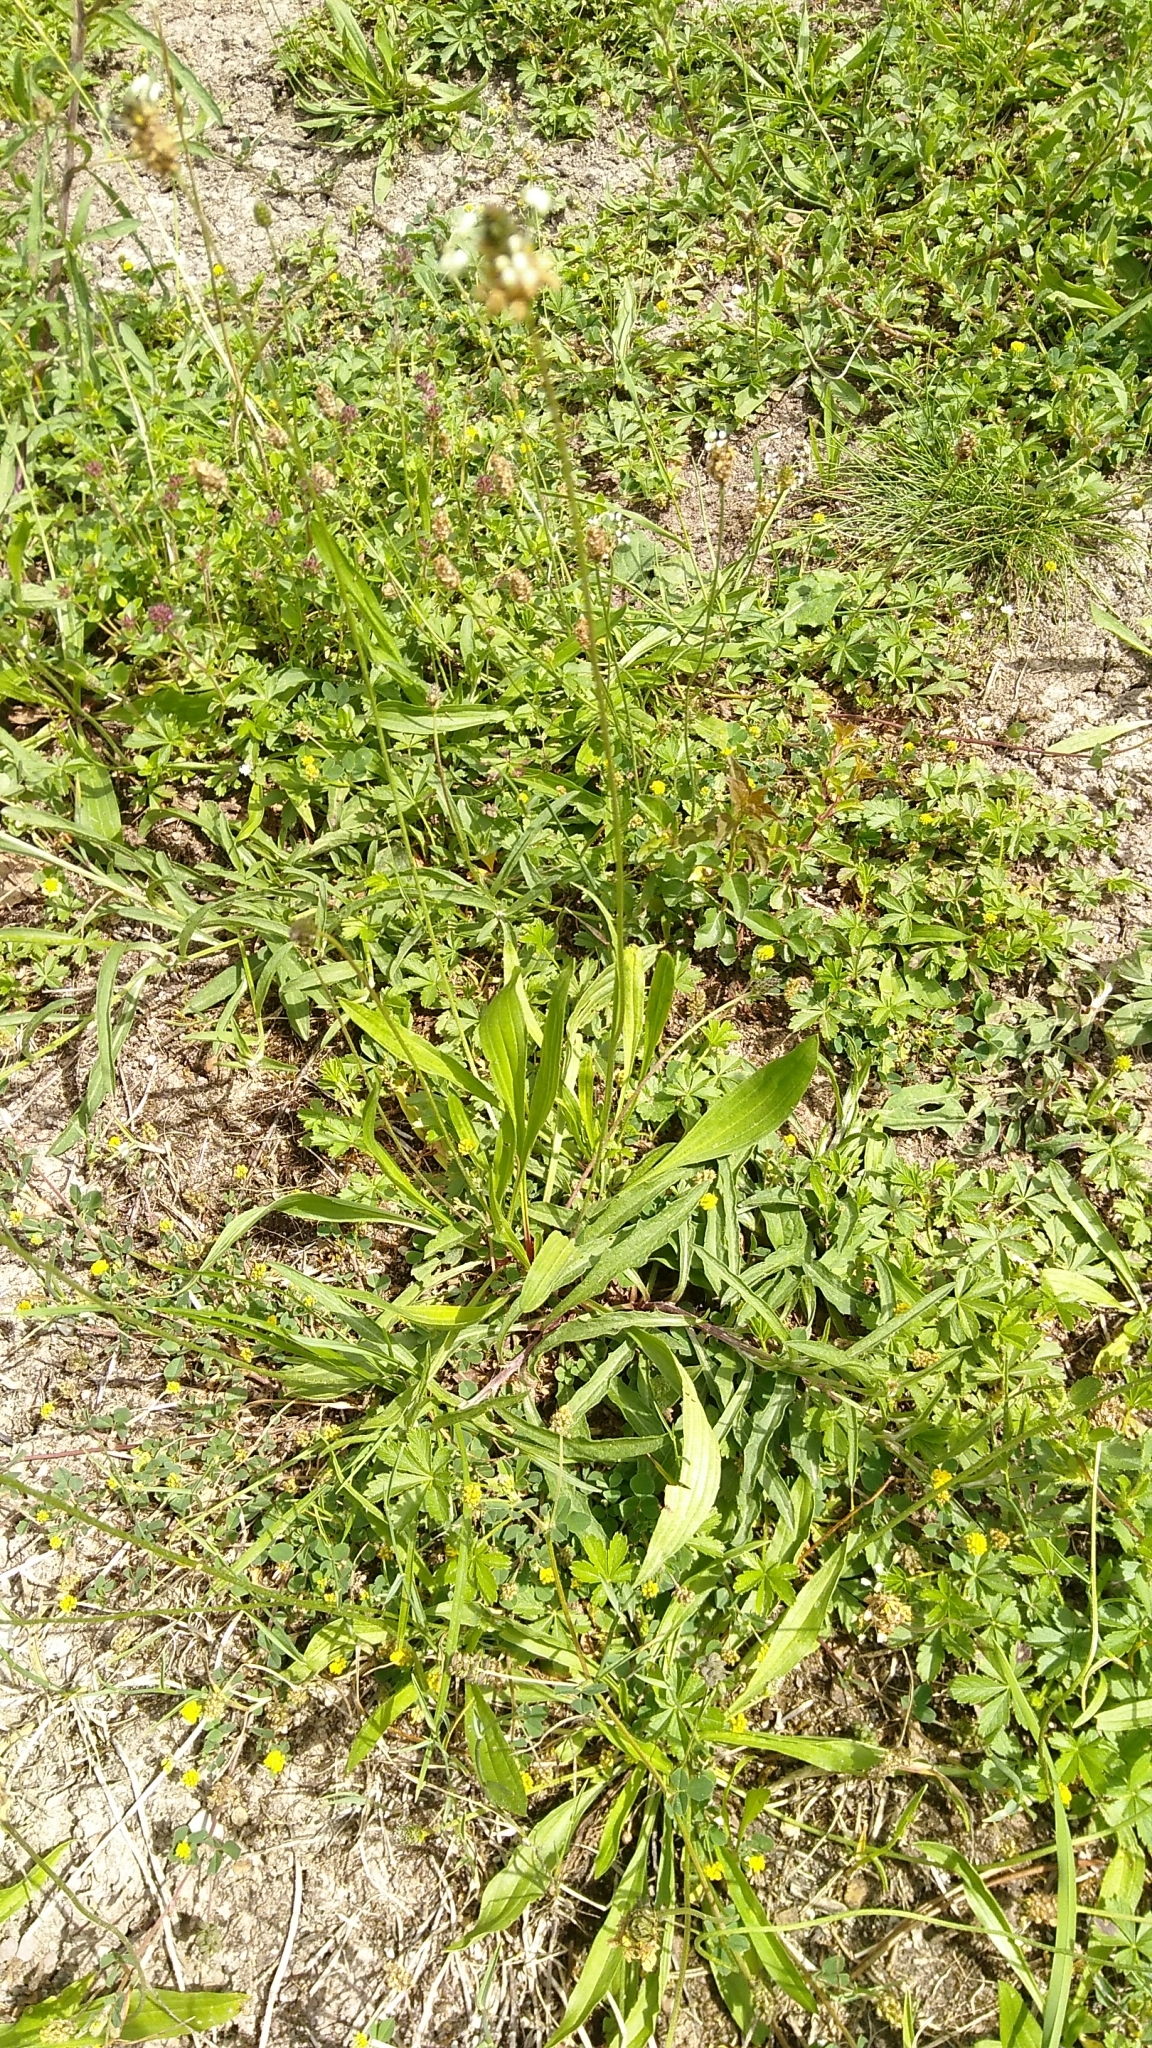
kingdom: Plantae
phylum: Tracheophyta
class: Magnoliopsida
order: Lamiales
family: Plantaginaceae
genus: Plantago
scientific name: Plantago lanceolata
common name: Ribwort plantain
